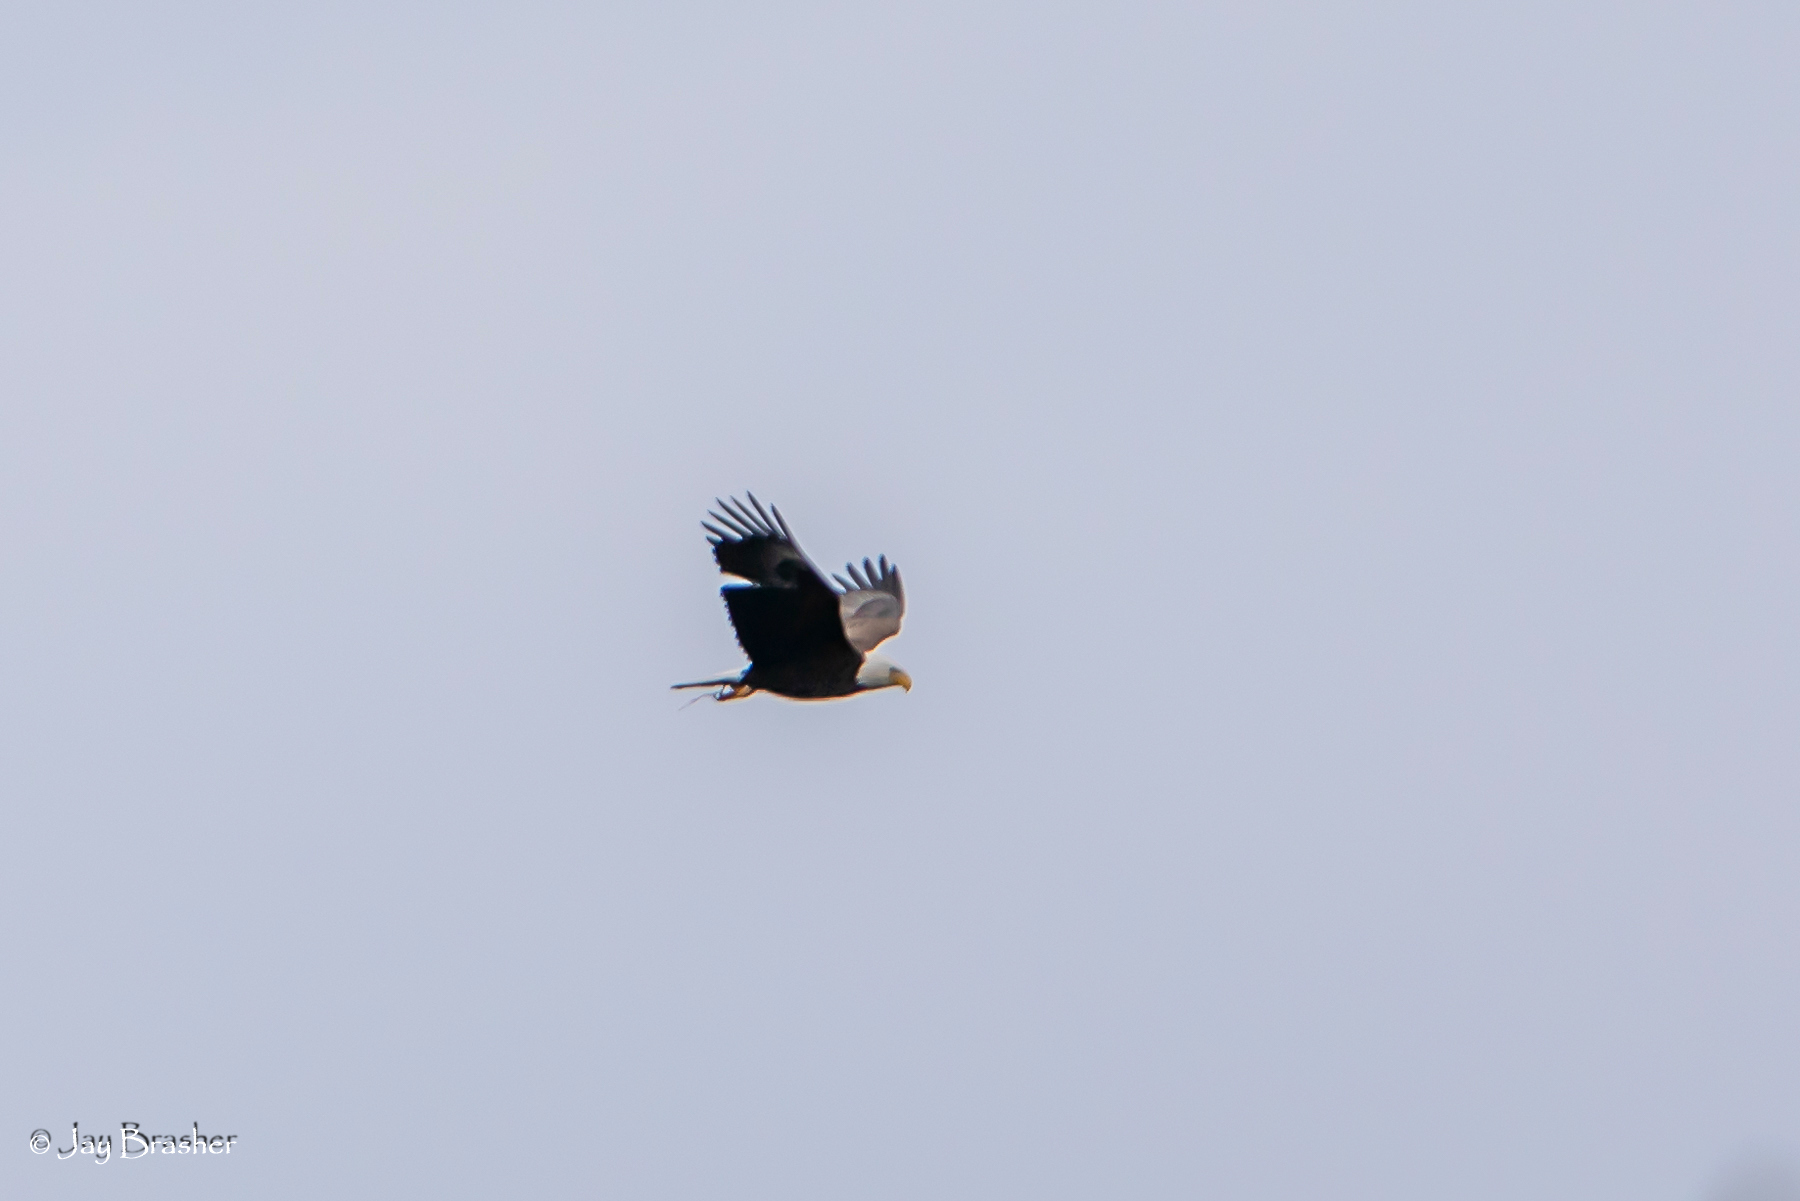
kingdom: Animalia
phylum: Chordata
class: Aves
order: Accipitriformes
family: Accipitridae
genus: Haliaeetus
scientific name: Haliaeetus leucocephalus
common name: Bald eagle
